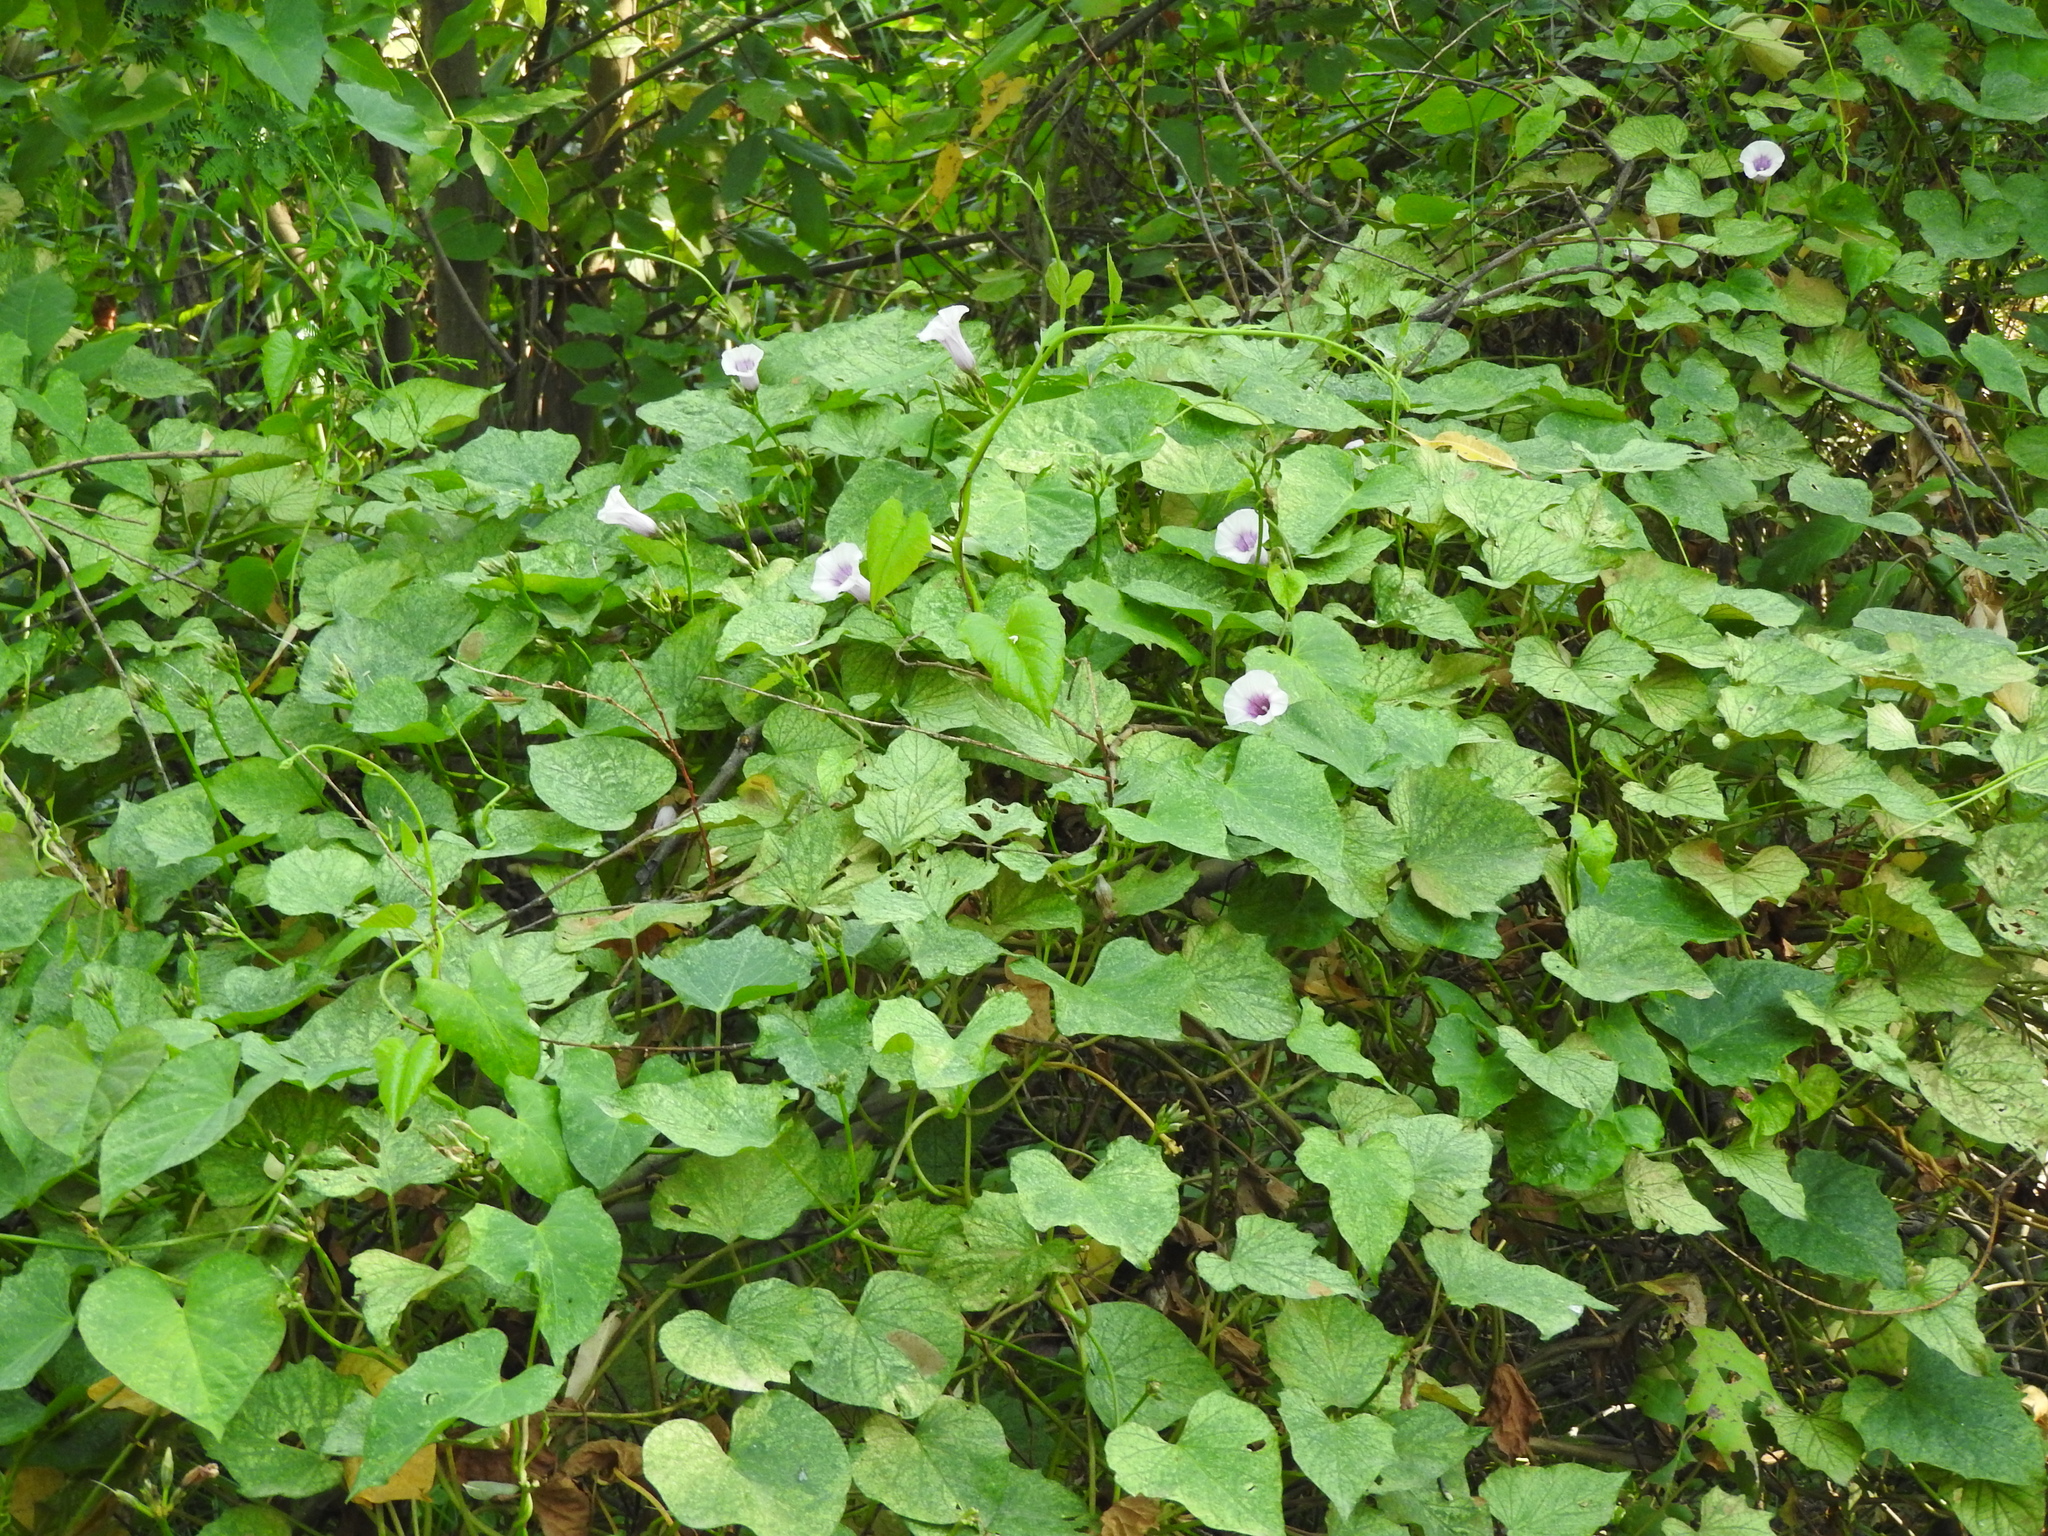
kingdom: Plantae
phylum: Tracheophyta
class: Magnoliopsida
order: Solanales
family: Convolvulaceae
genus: Ipomoea
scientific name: Ipomoea batatas
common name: Sweet-potato
